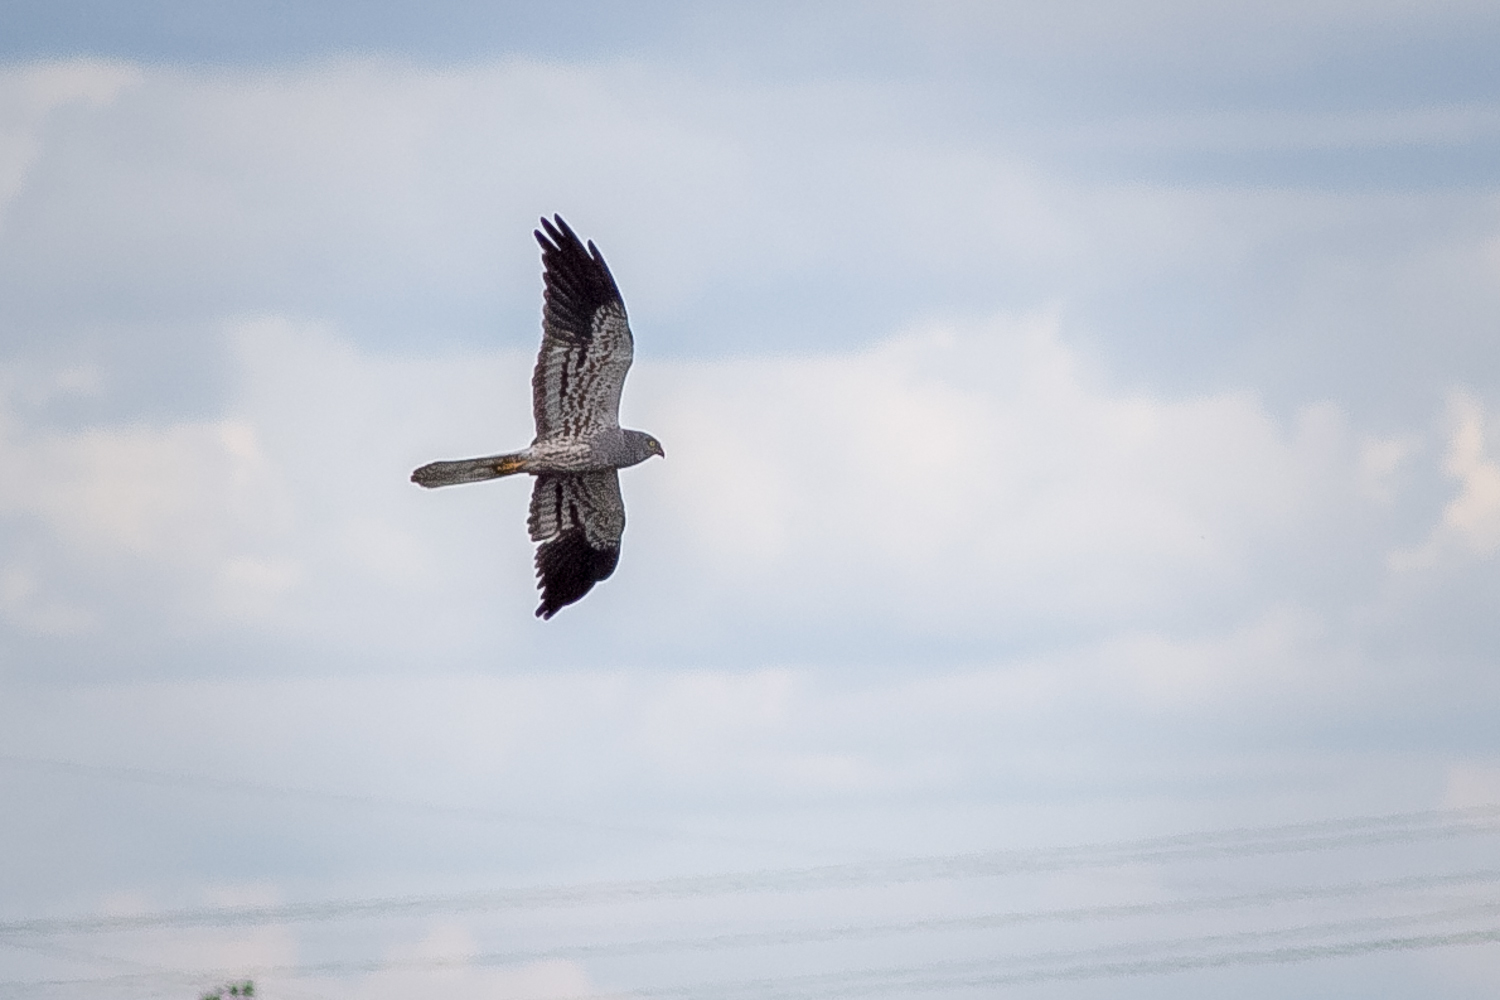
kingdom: Animalia
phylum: Chordata
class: Aves
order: Accipitriformes
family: Accipitridae
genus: Circus
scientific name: Circus pygargus
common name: Montagu's harrier
